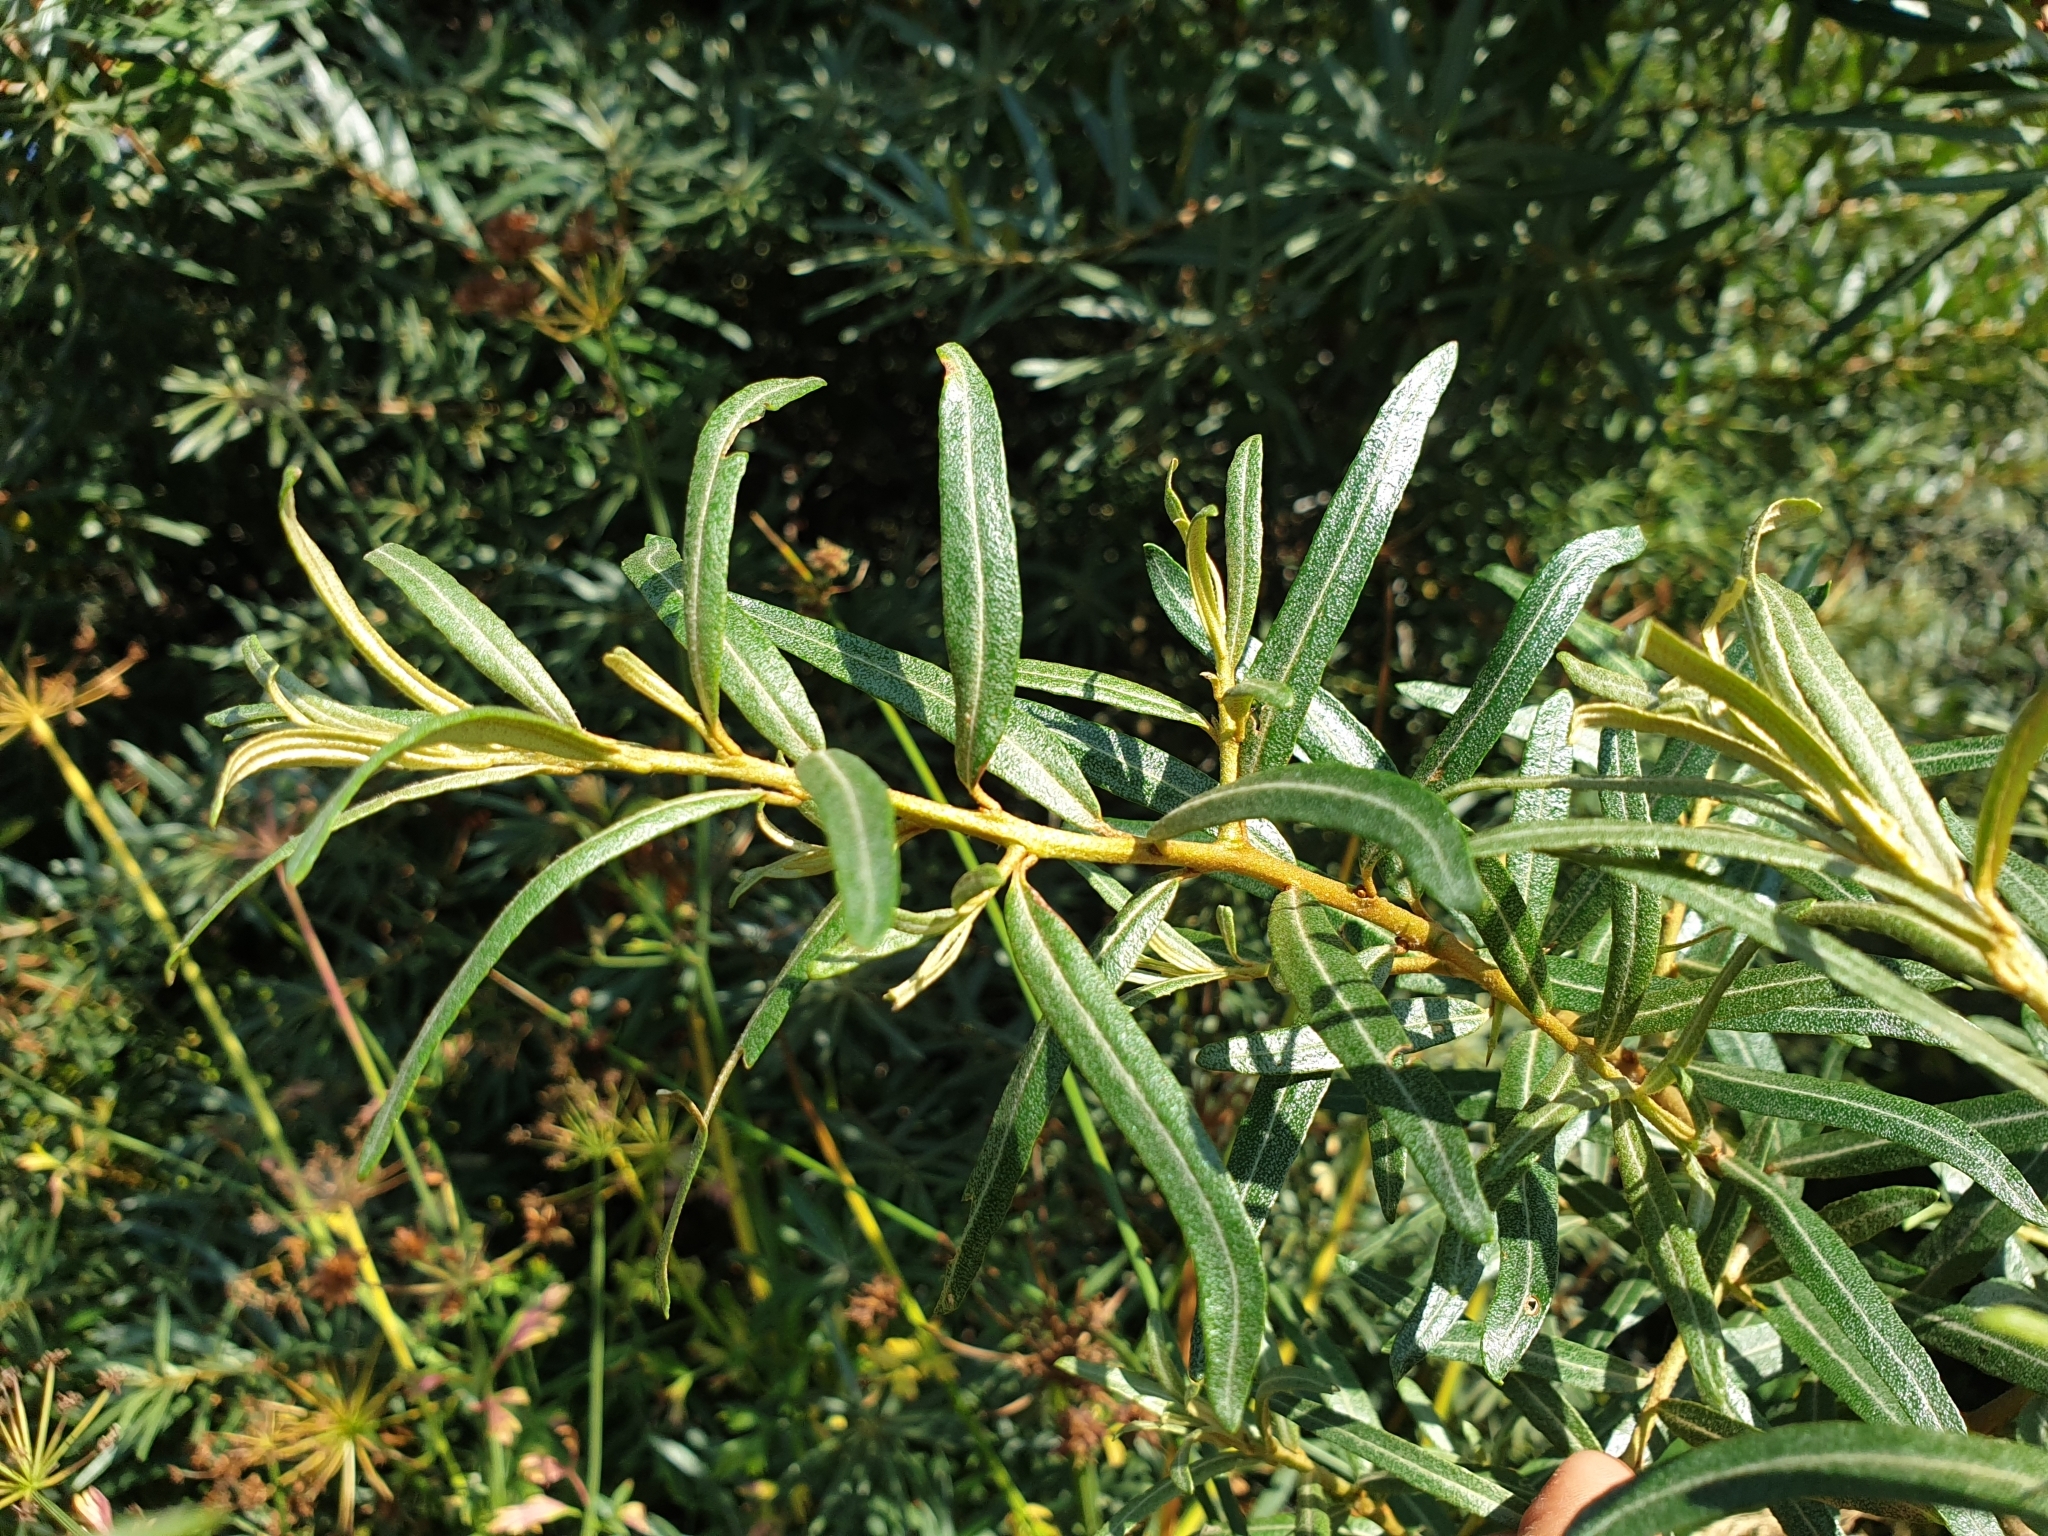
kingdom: Plantae
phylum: Tracheophyta
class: Magnoliopsida
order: Rosales
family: Elaeagnaceae
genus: Hippophae
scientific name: Hippophae rhamnoides
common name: Sea-buckthorn
